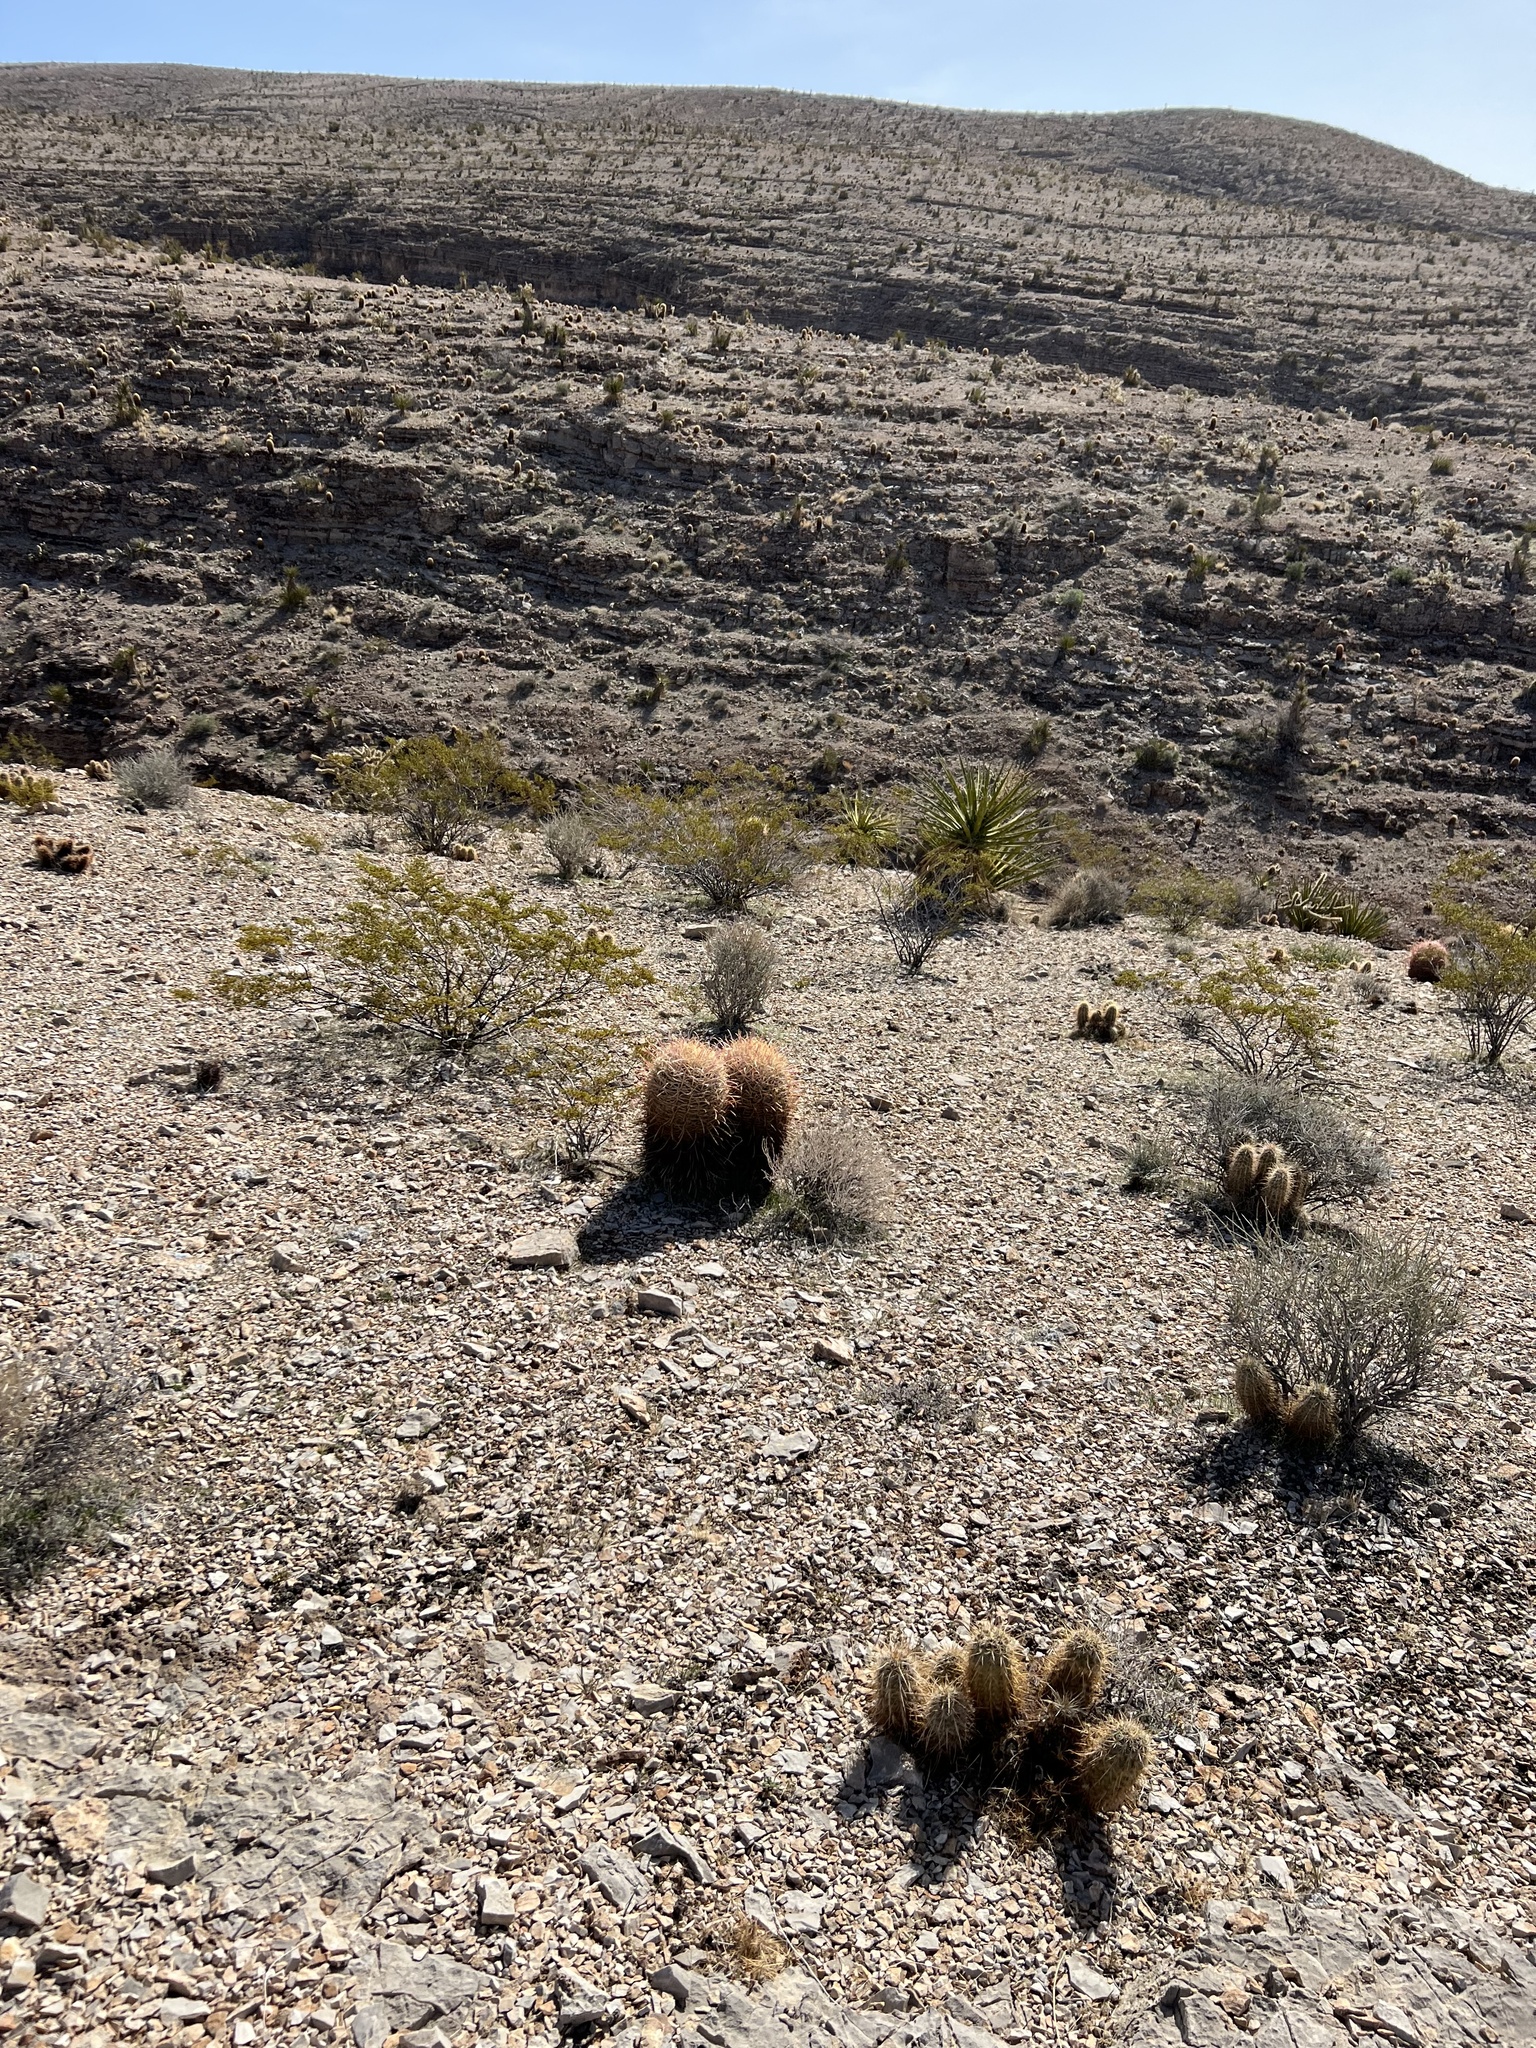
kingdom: Plantae
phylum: Tracheophyta
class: Magnoliopsida
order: Caryophyllales
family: Cactaceae
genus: Ferocactus
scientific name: Ferocactus cylindraceus
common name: California barrel cactus
